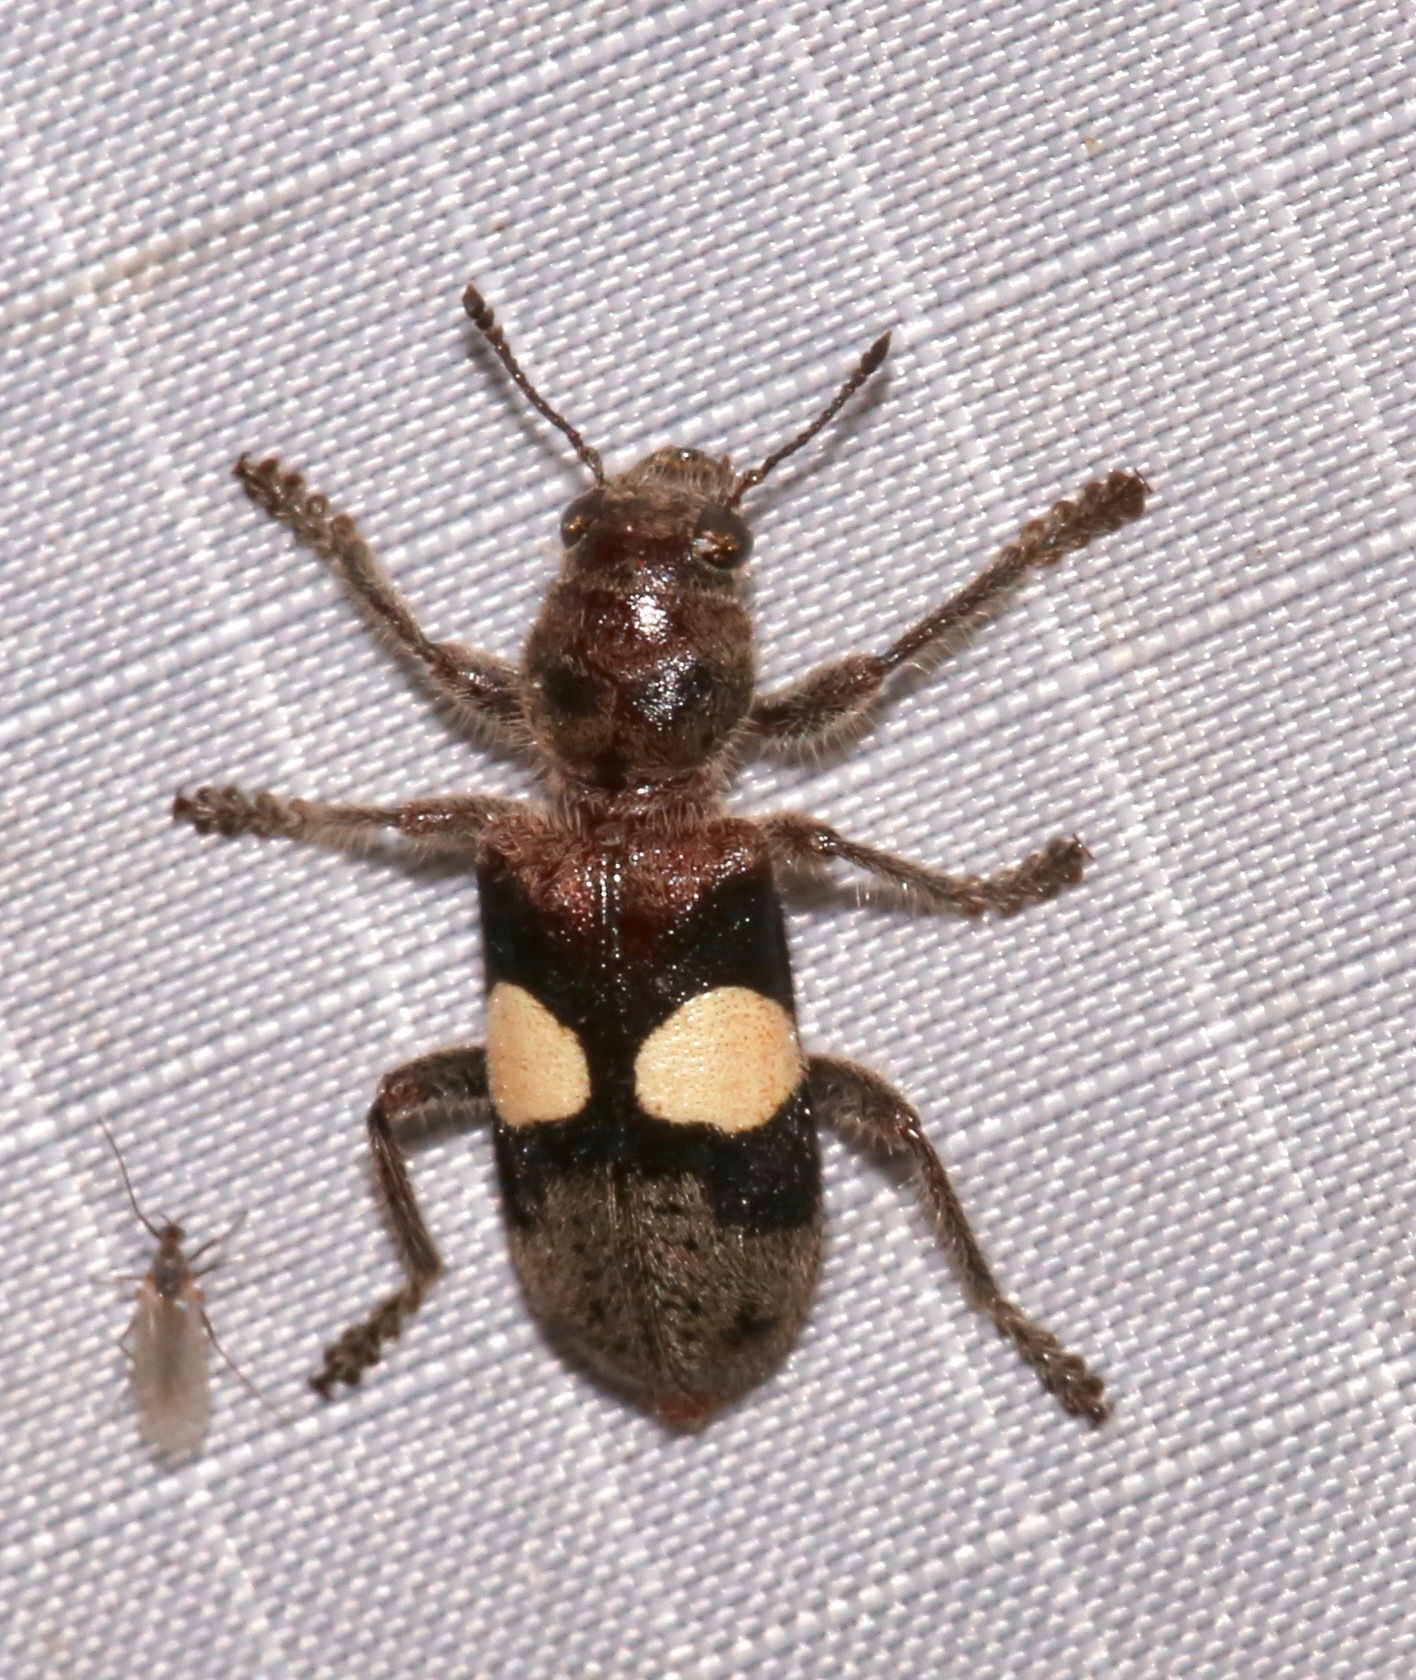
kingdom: Animalia
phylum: Arthropoda
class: Insecta
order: Coleoptera
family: Cleridae
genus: Enoclerus
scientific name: Enoclerus bimaculatus
